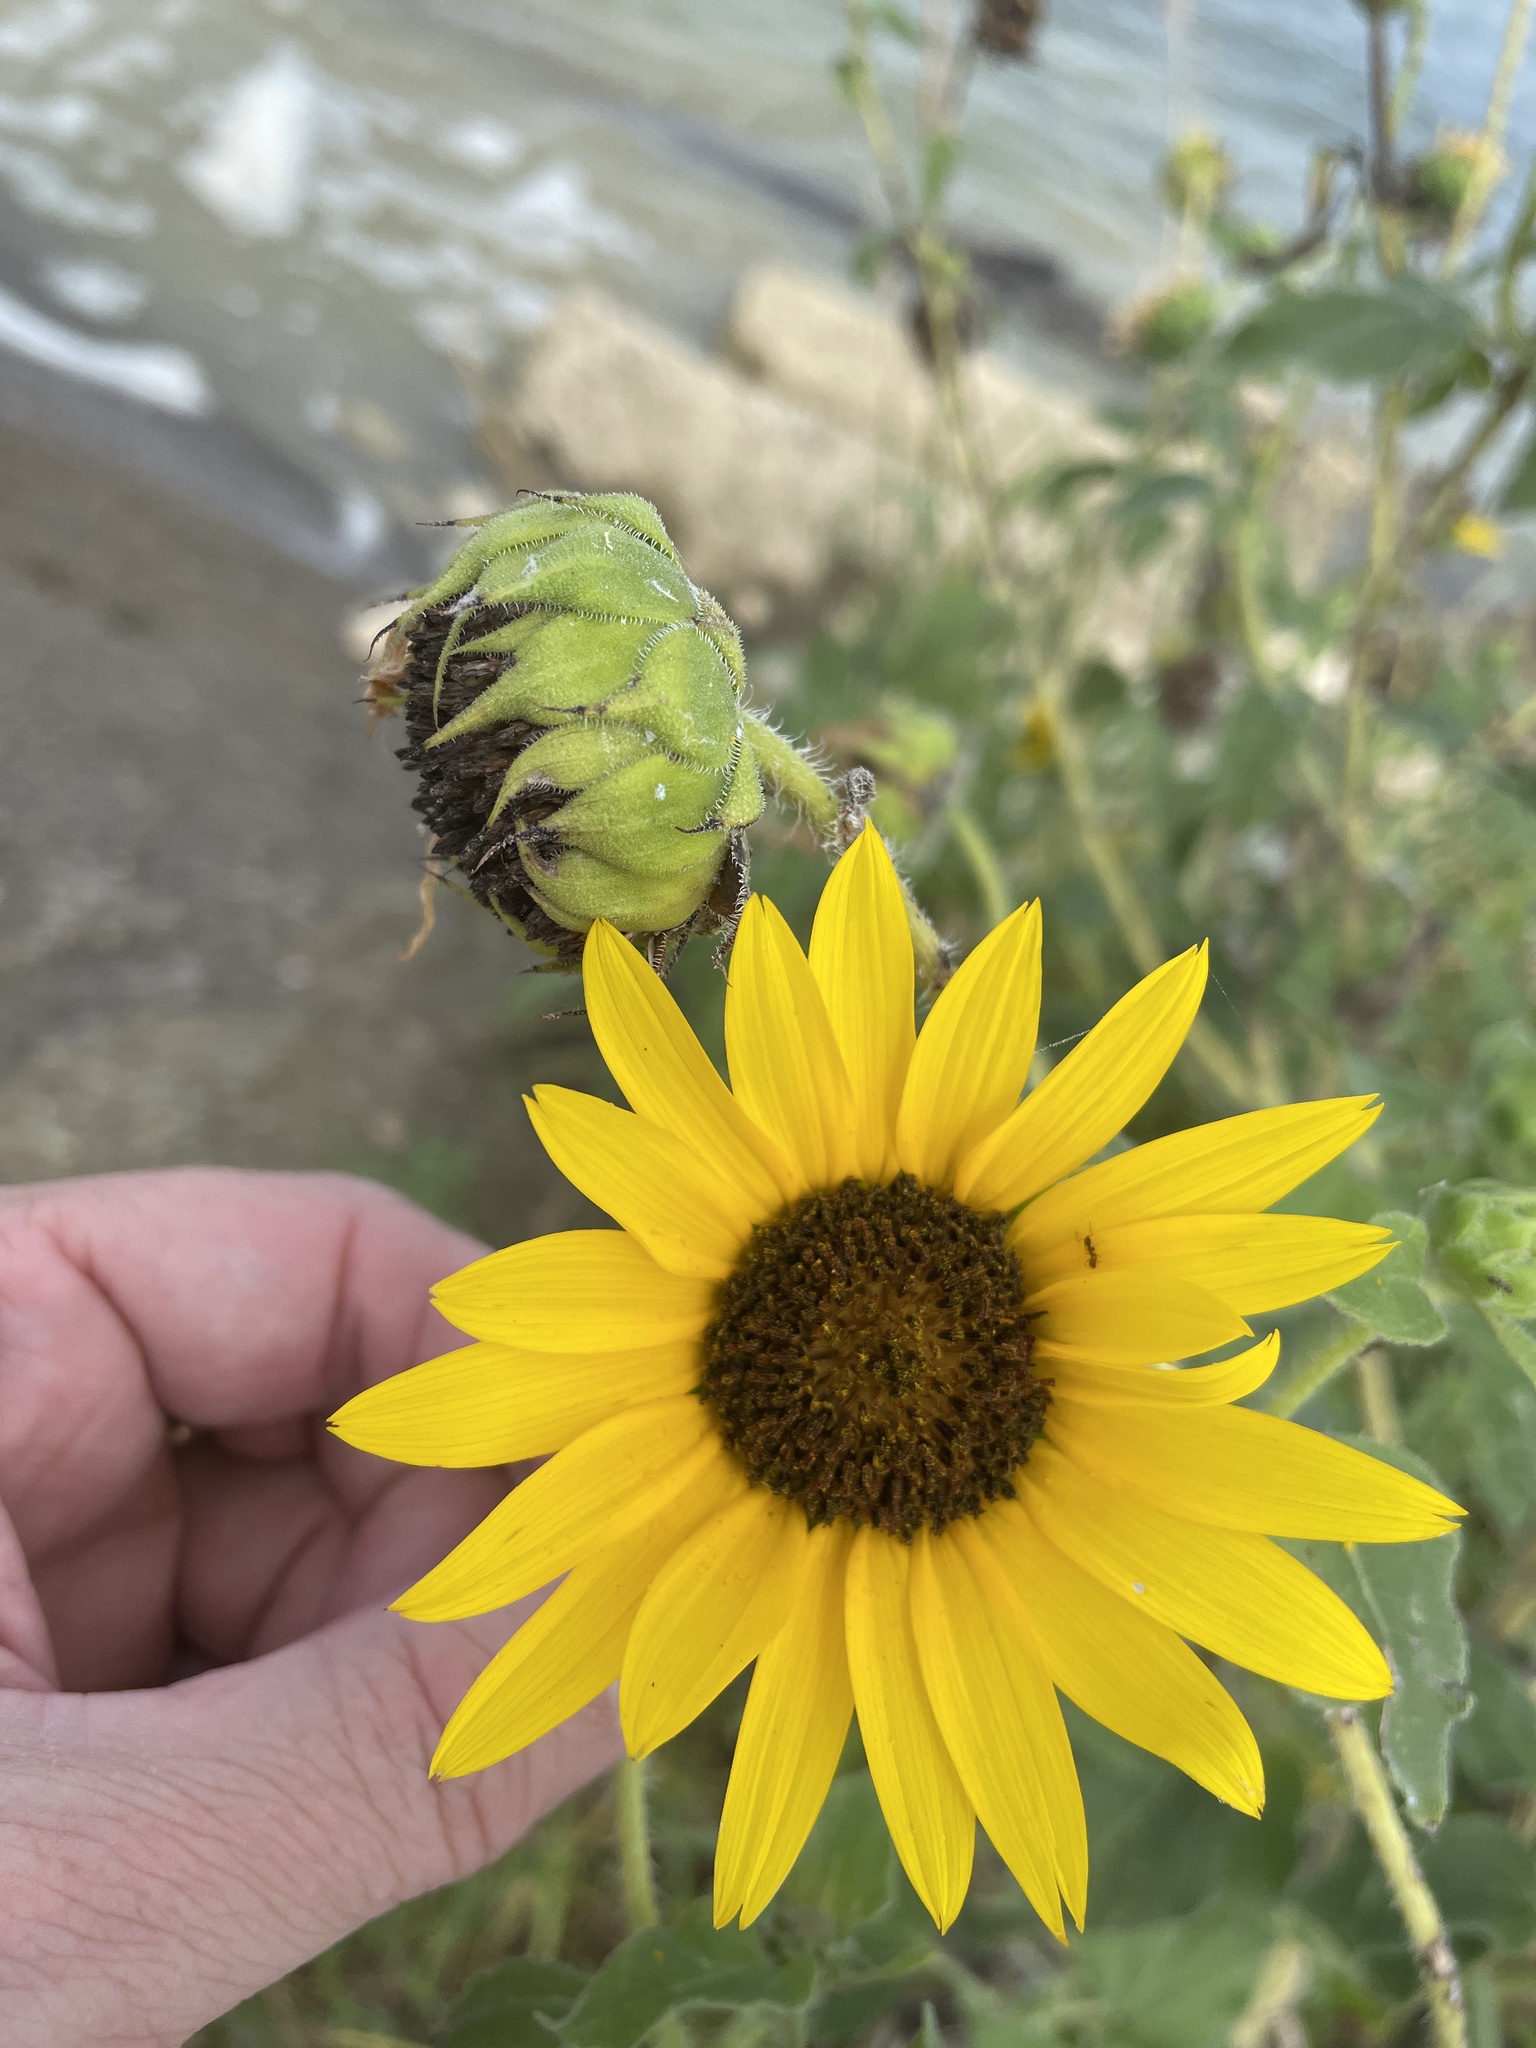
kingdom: Plantae
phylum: Tracheophyta
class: Magnoliopsida
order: Asterales
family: Asteraceae
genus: Helianthus
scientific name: Helianthus annuus
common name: Sunflower
